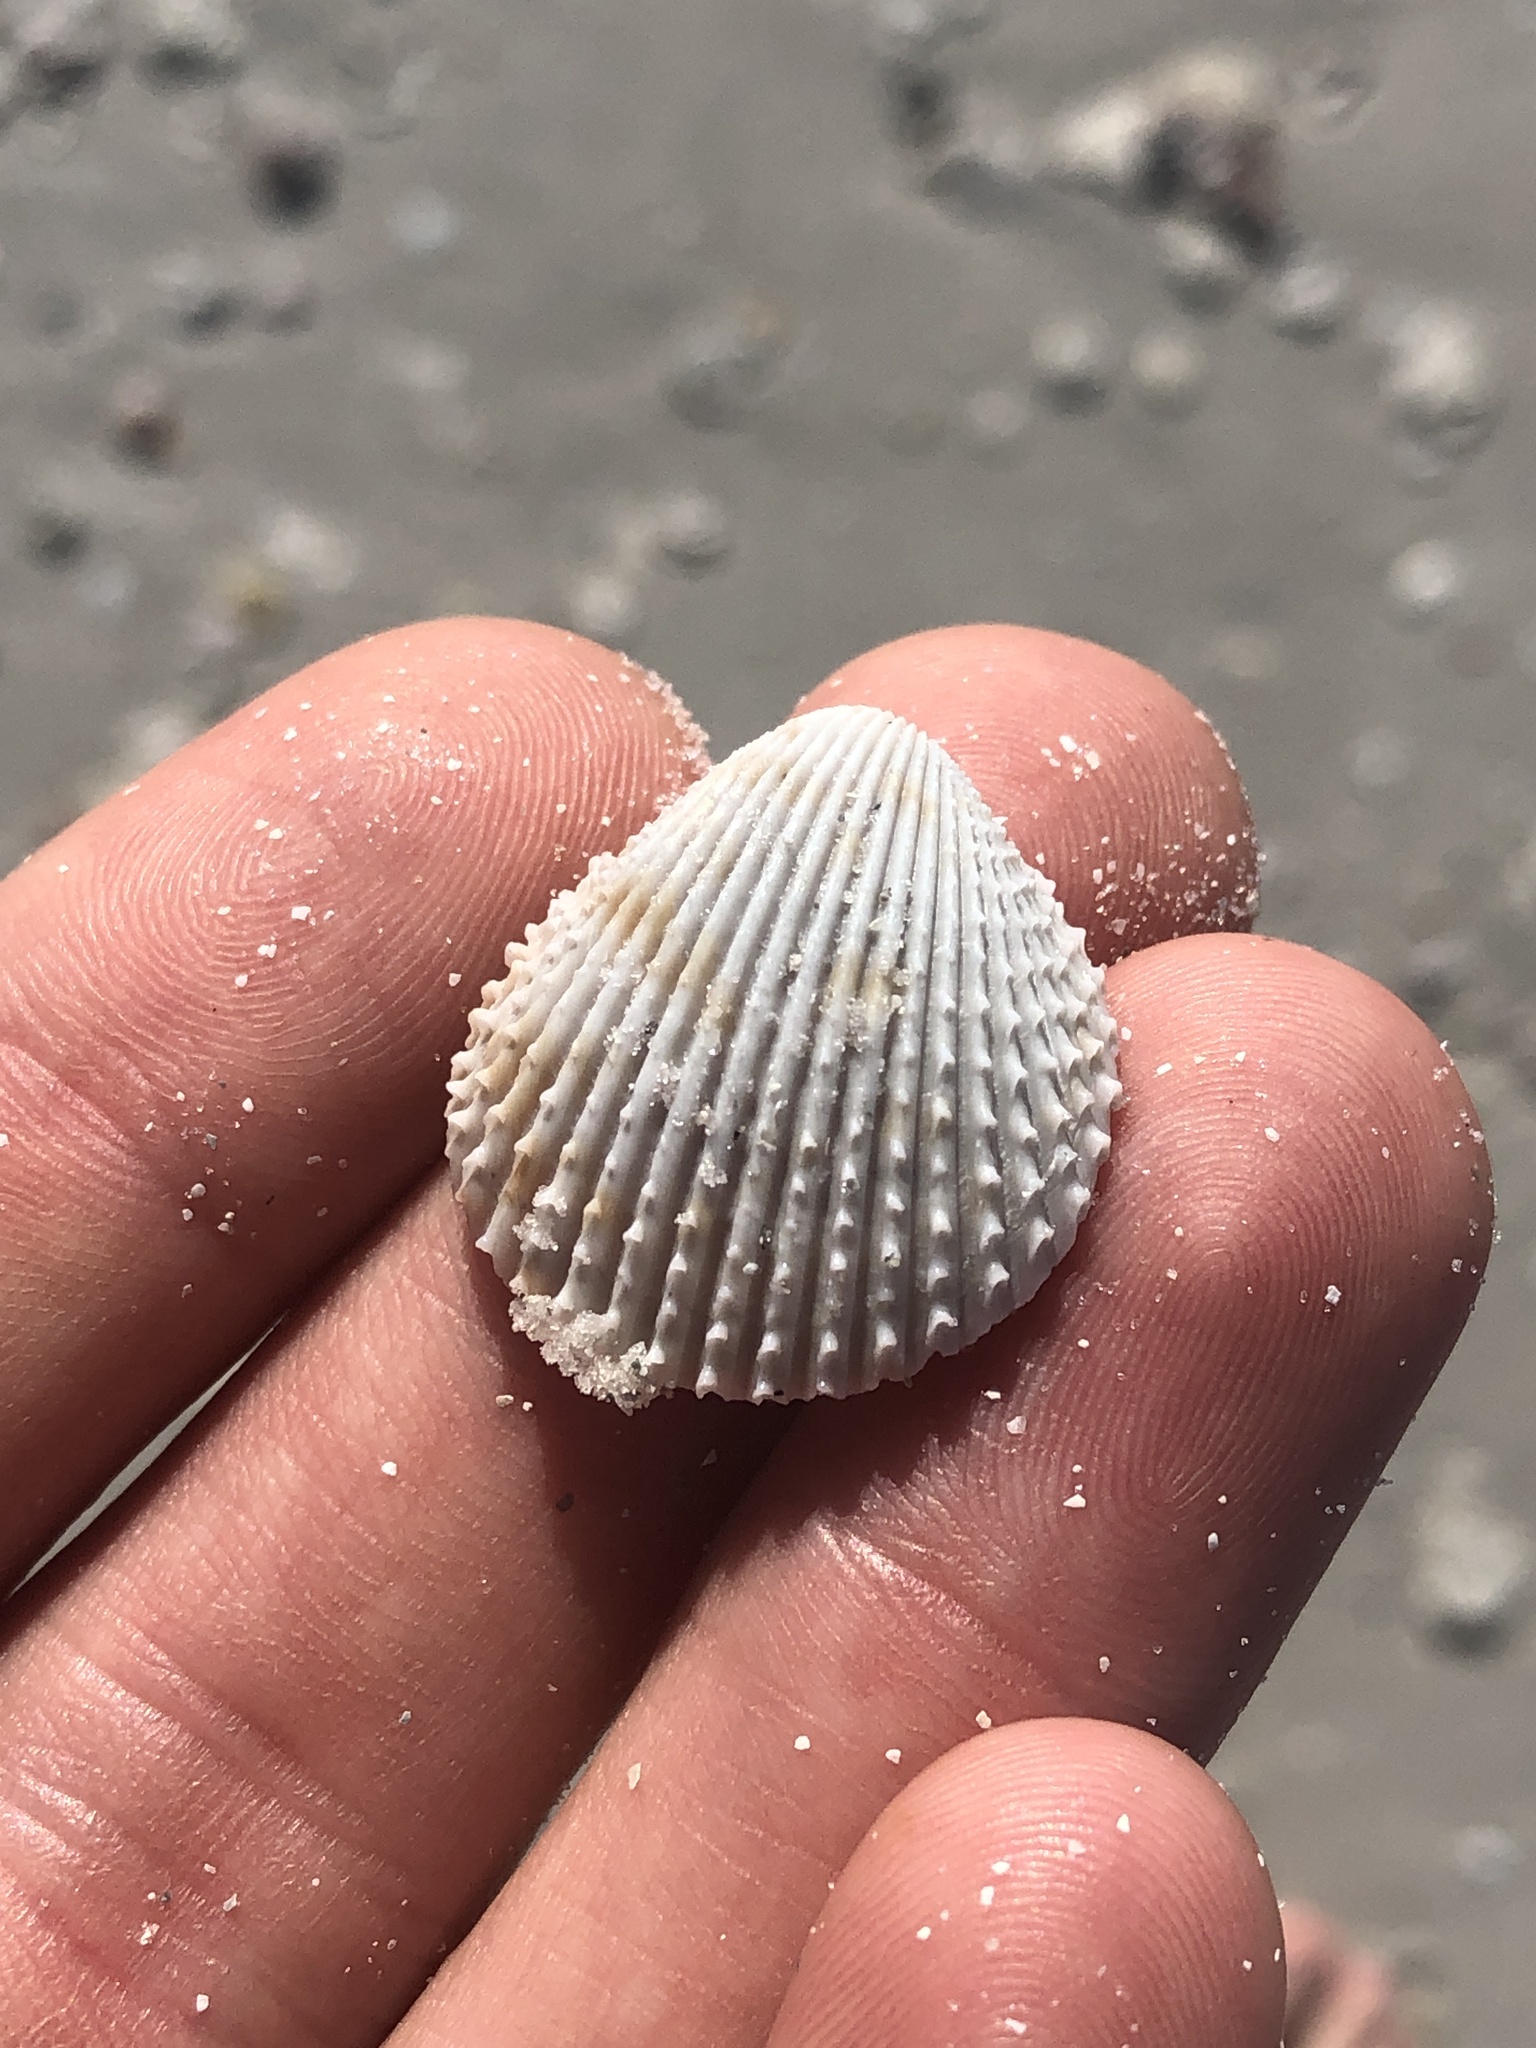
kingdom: Animalia
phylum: Mollusca
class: Bivalvia
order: Cardiida
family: Cardiidae
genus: Trachycardium
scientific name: Trachycardium egmontianum
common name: Florida pricklycockle
